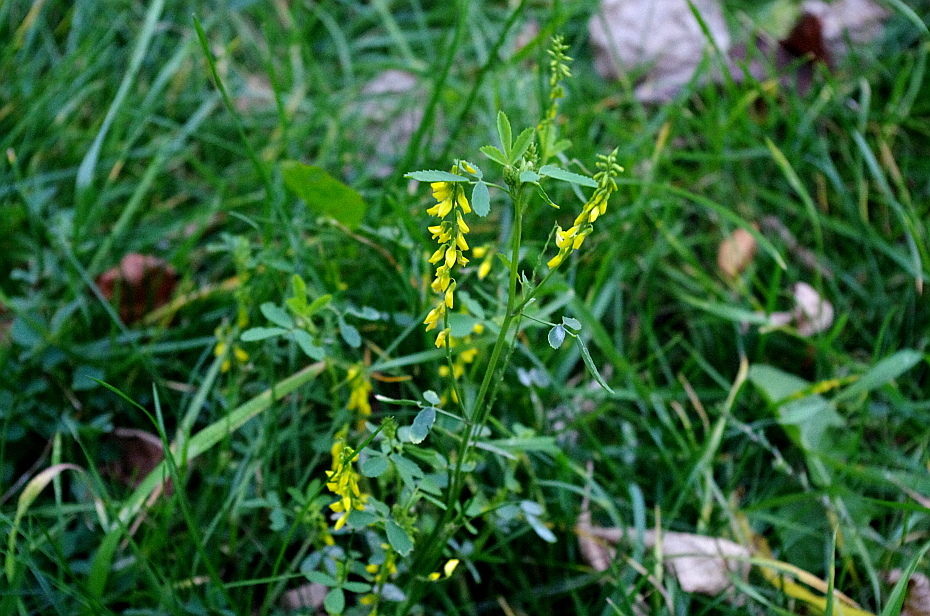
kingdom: Plantae
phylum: Tracheophyta
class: Magnoliopsida
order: Fabales
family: Fabaceae
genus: Melilotus
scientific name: Melilotus officinalis
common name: Sweetclover
